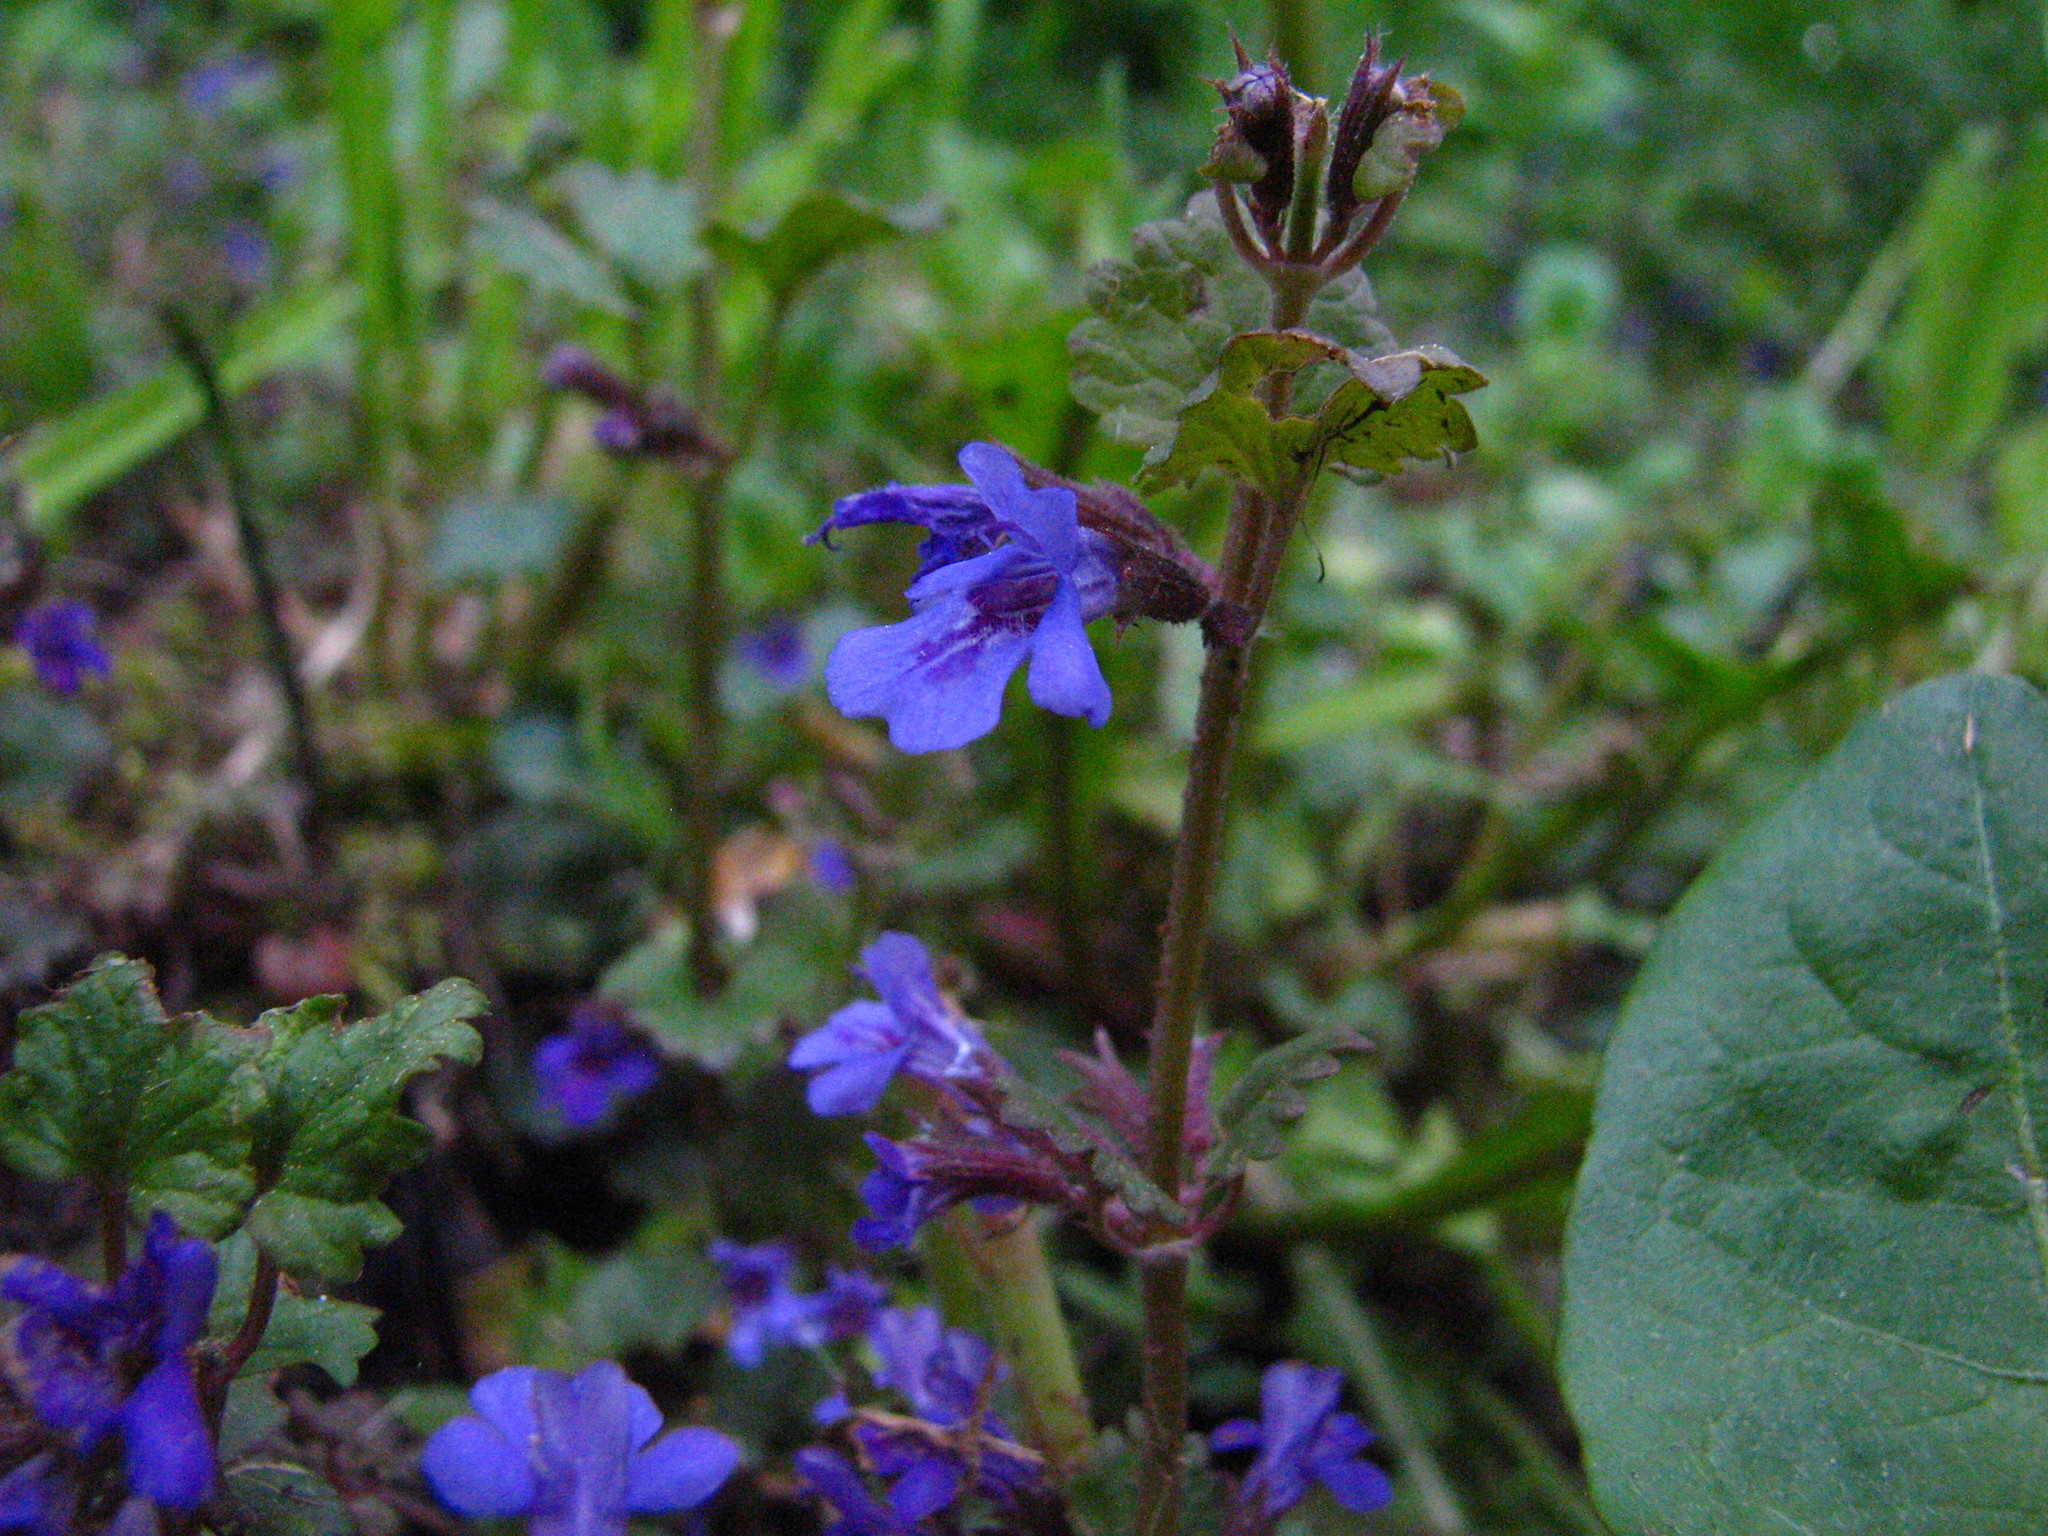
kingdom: Plantae
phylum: Tracheophyta
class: Magnoliopsida
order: Lamiales
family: Lamiaceae
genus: Glechoma
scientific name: Glechoma hederacea
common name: Ground ivy
